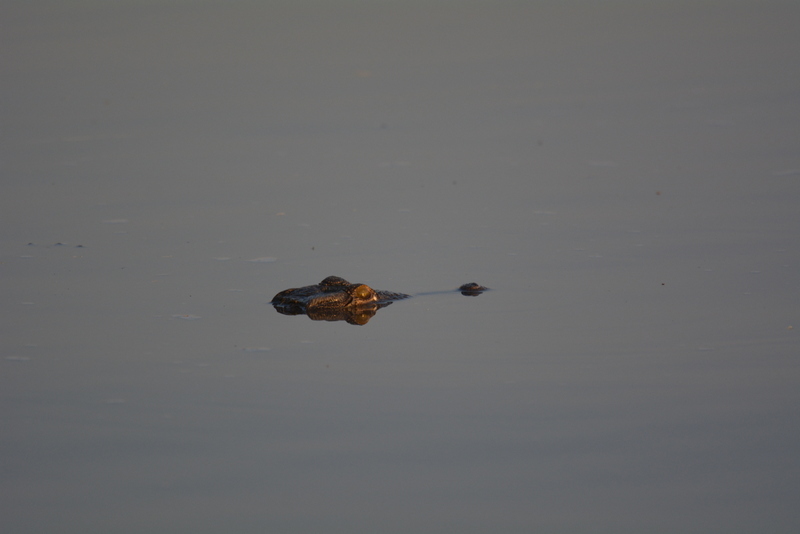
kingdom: Animalia
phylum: Chordata
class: Crocodylia
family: Crocodylidae
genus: Crocodylus
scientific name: Crocodylus niloticus
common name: Nile crocodile
